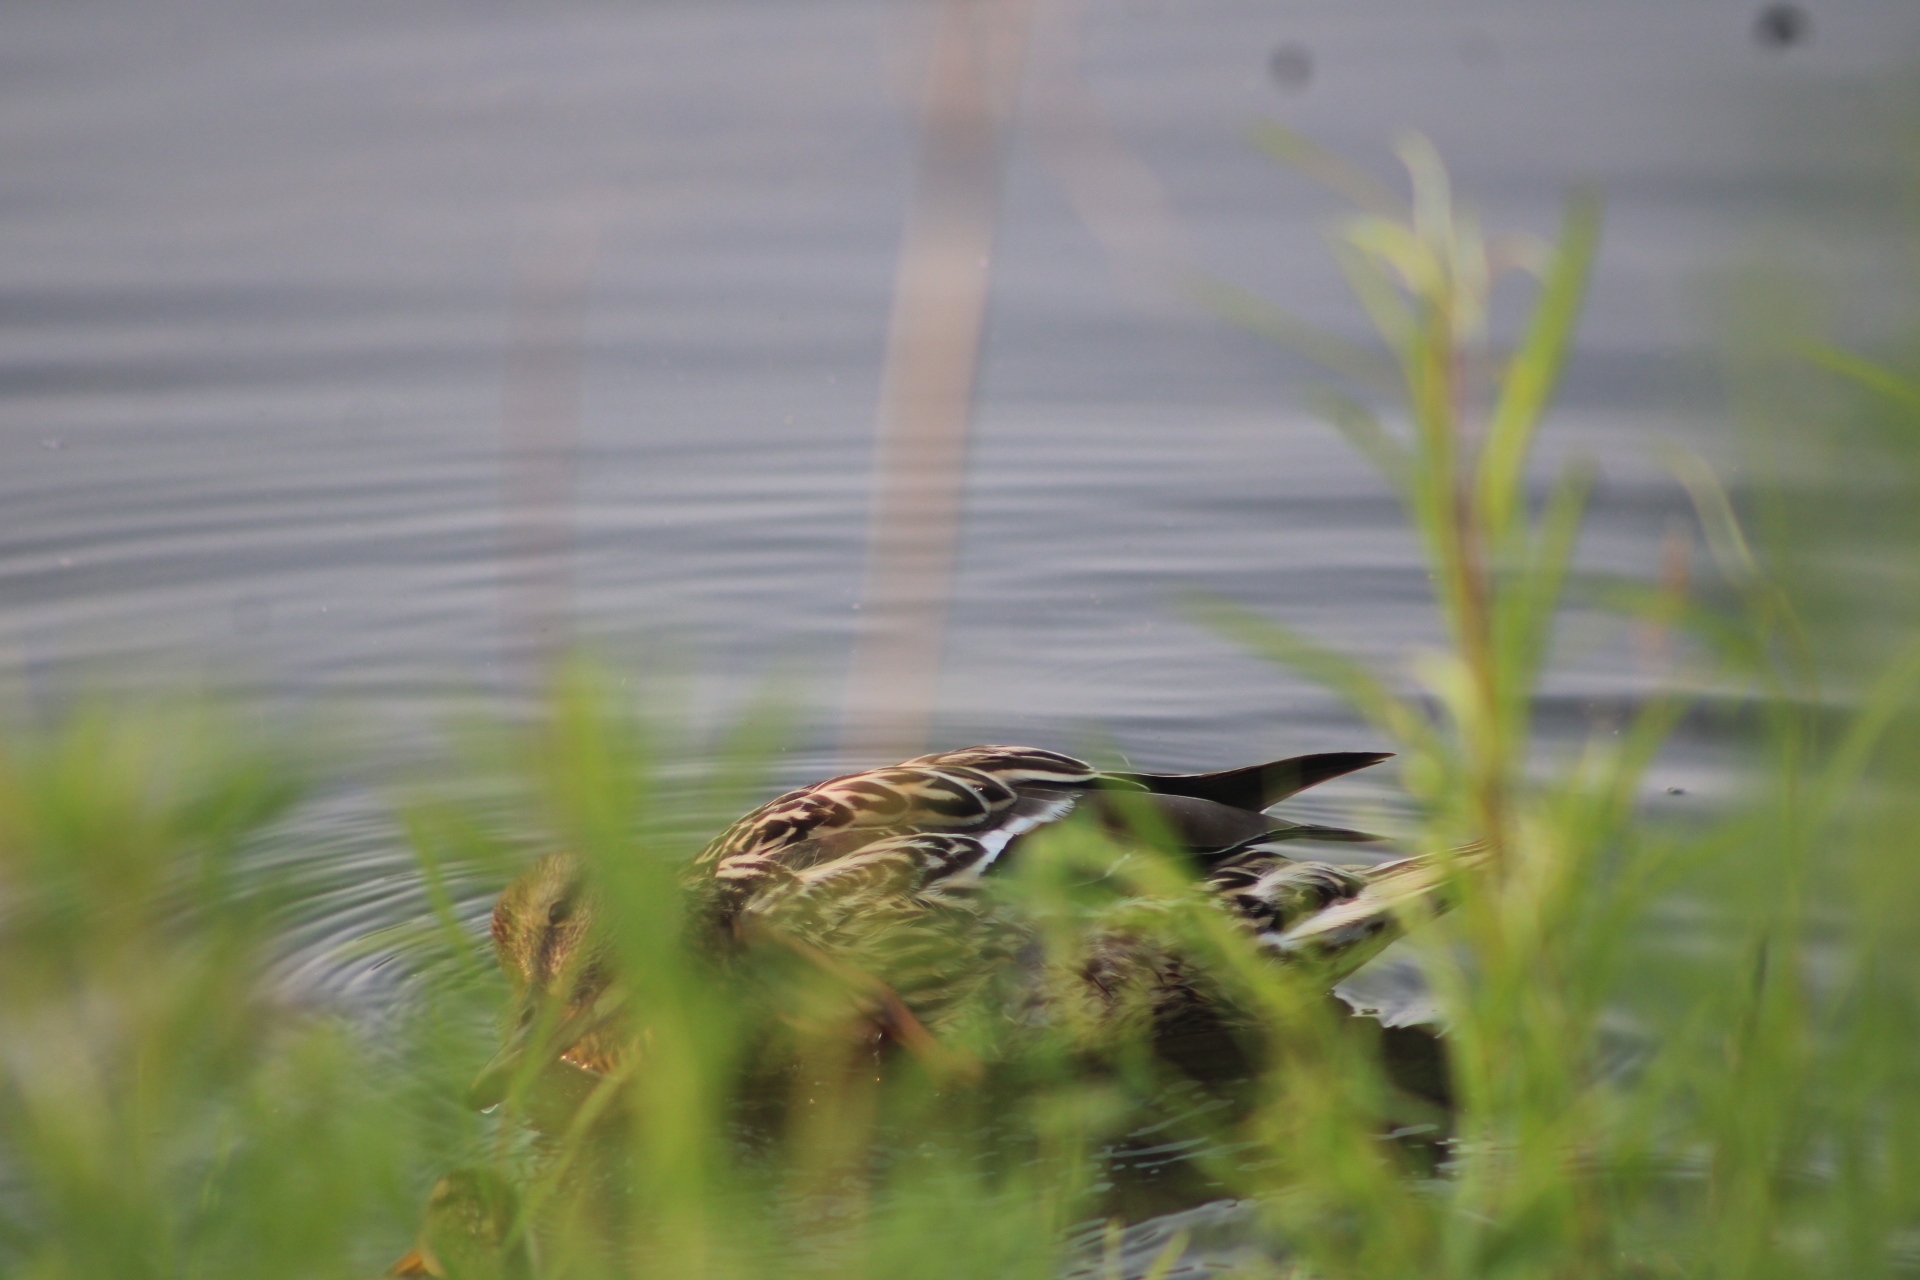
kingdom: Animalia
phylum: Chordata
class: Aves
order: Anseriformes
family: Anatidae
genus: Anas
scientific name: Anas platyrhynchos
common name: Mallard
